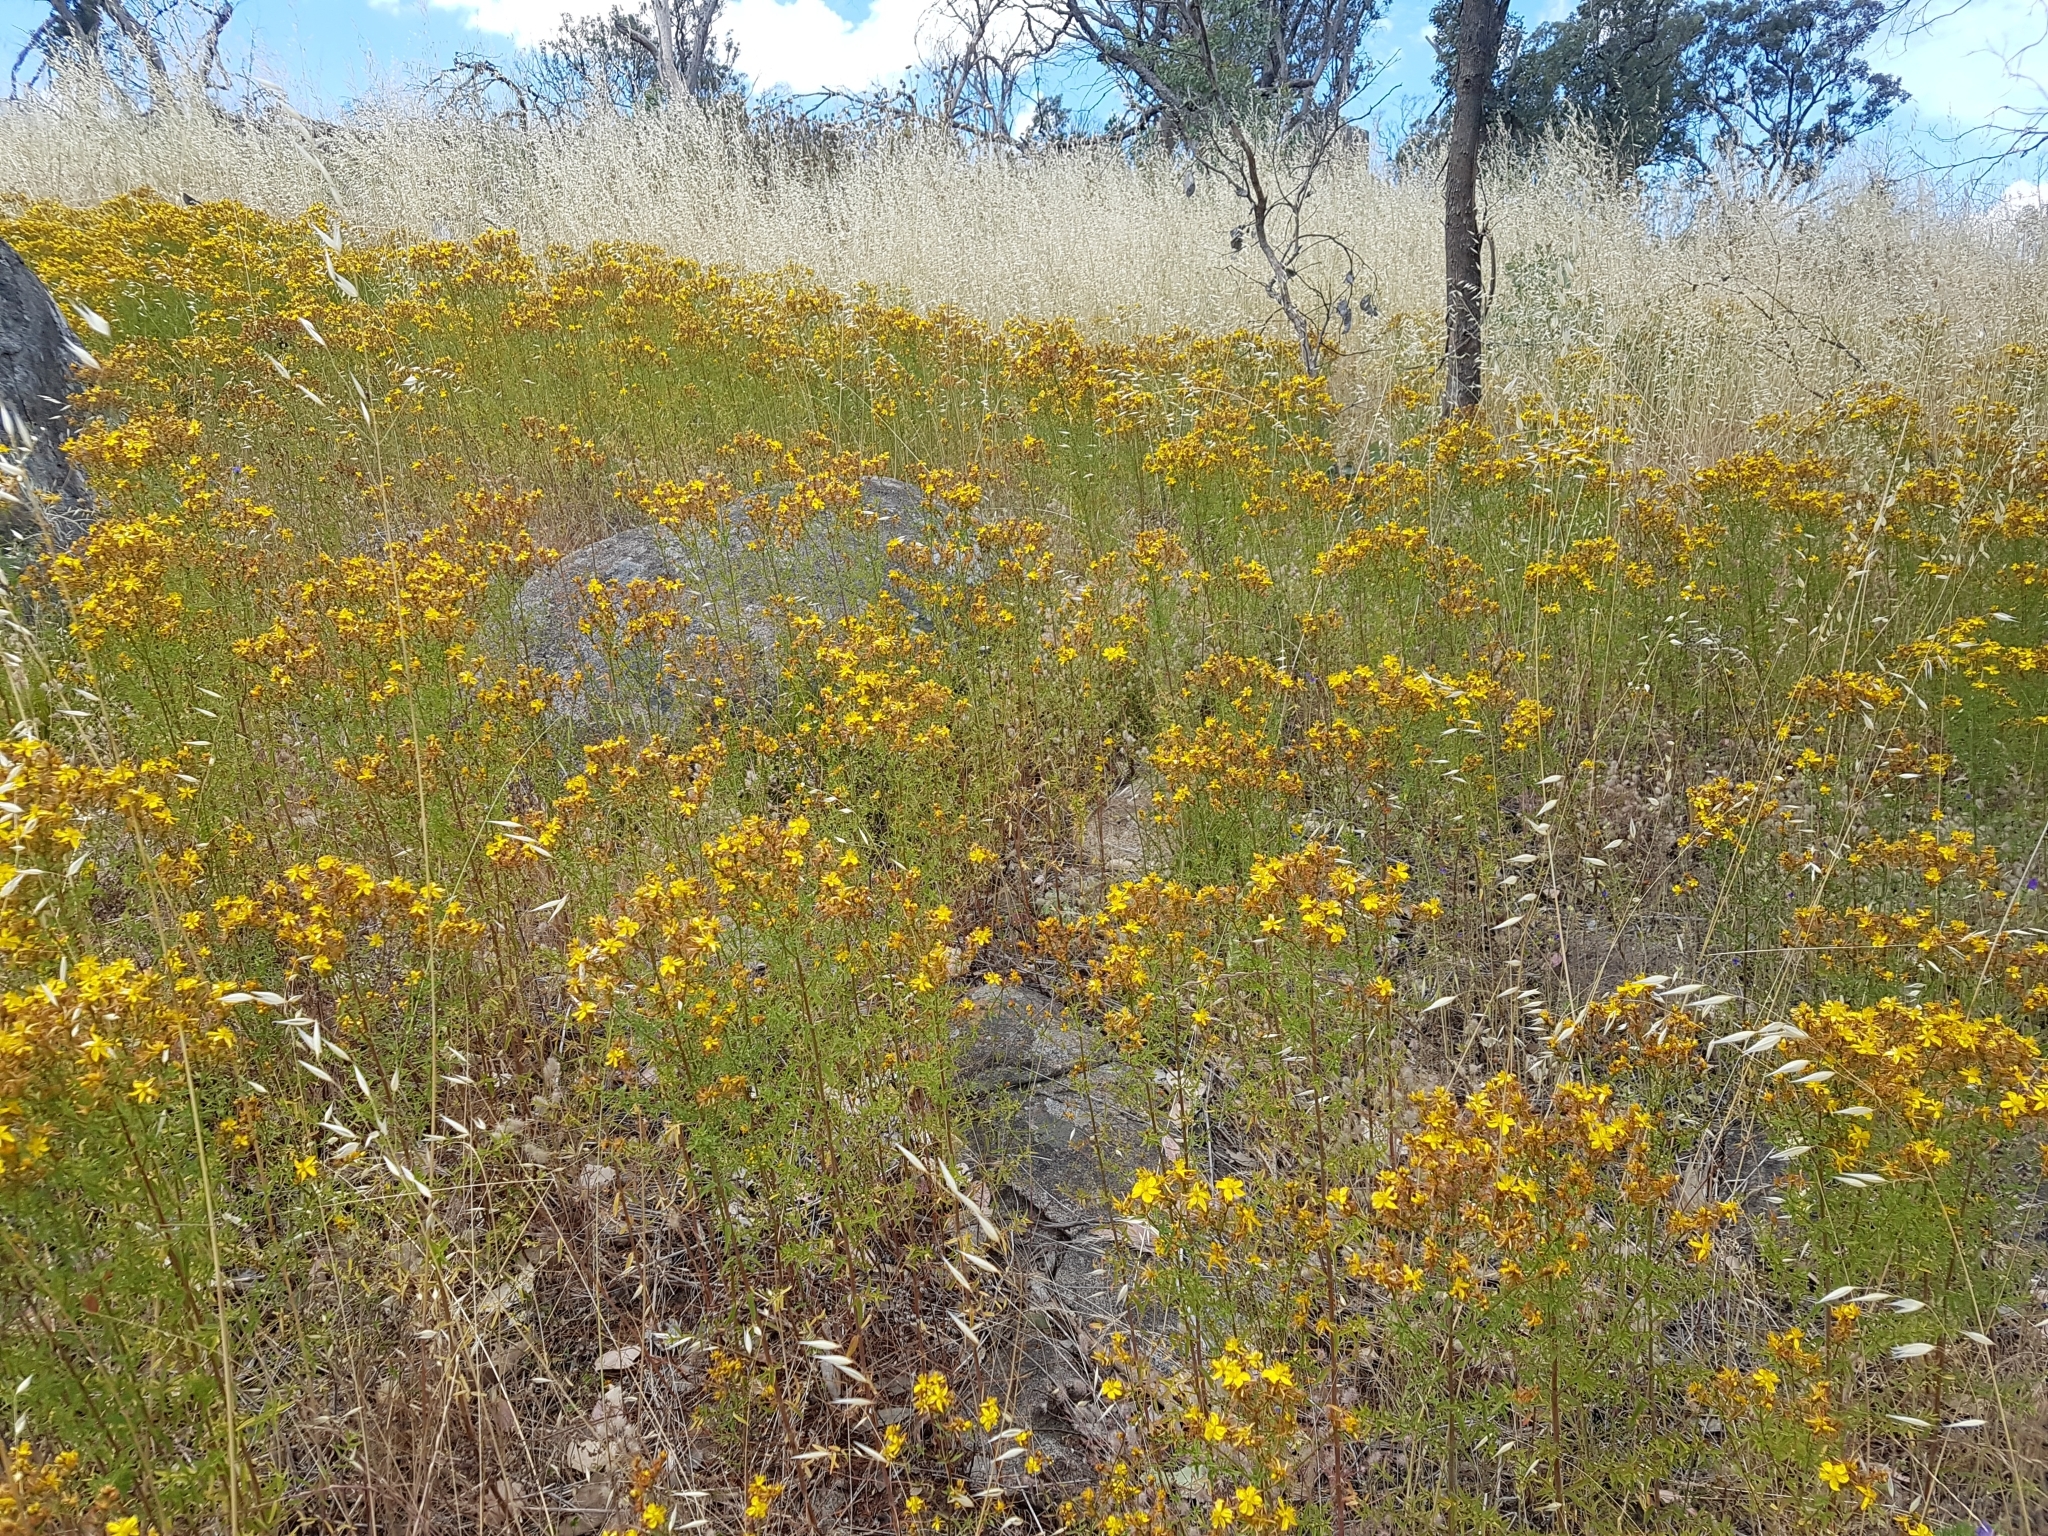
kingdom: Plantae
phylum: Tracheophyta
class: Magnoliopsida
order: Malpighiales
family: Hypericaceae
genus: Hypericum
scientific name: Hypericum perforatum
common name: Common st. johnswort
